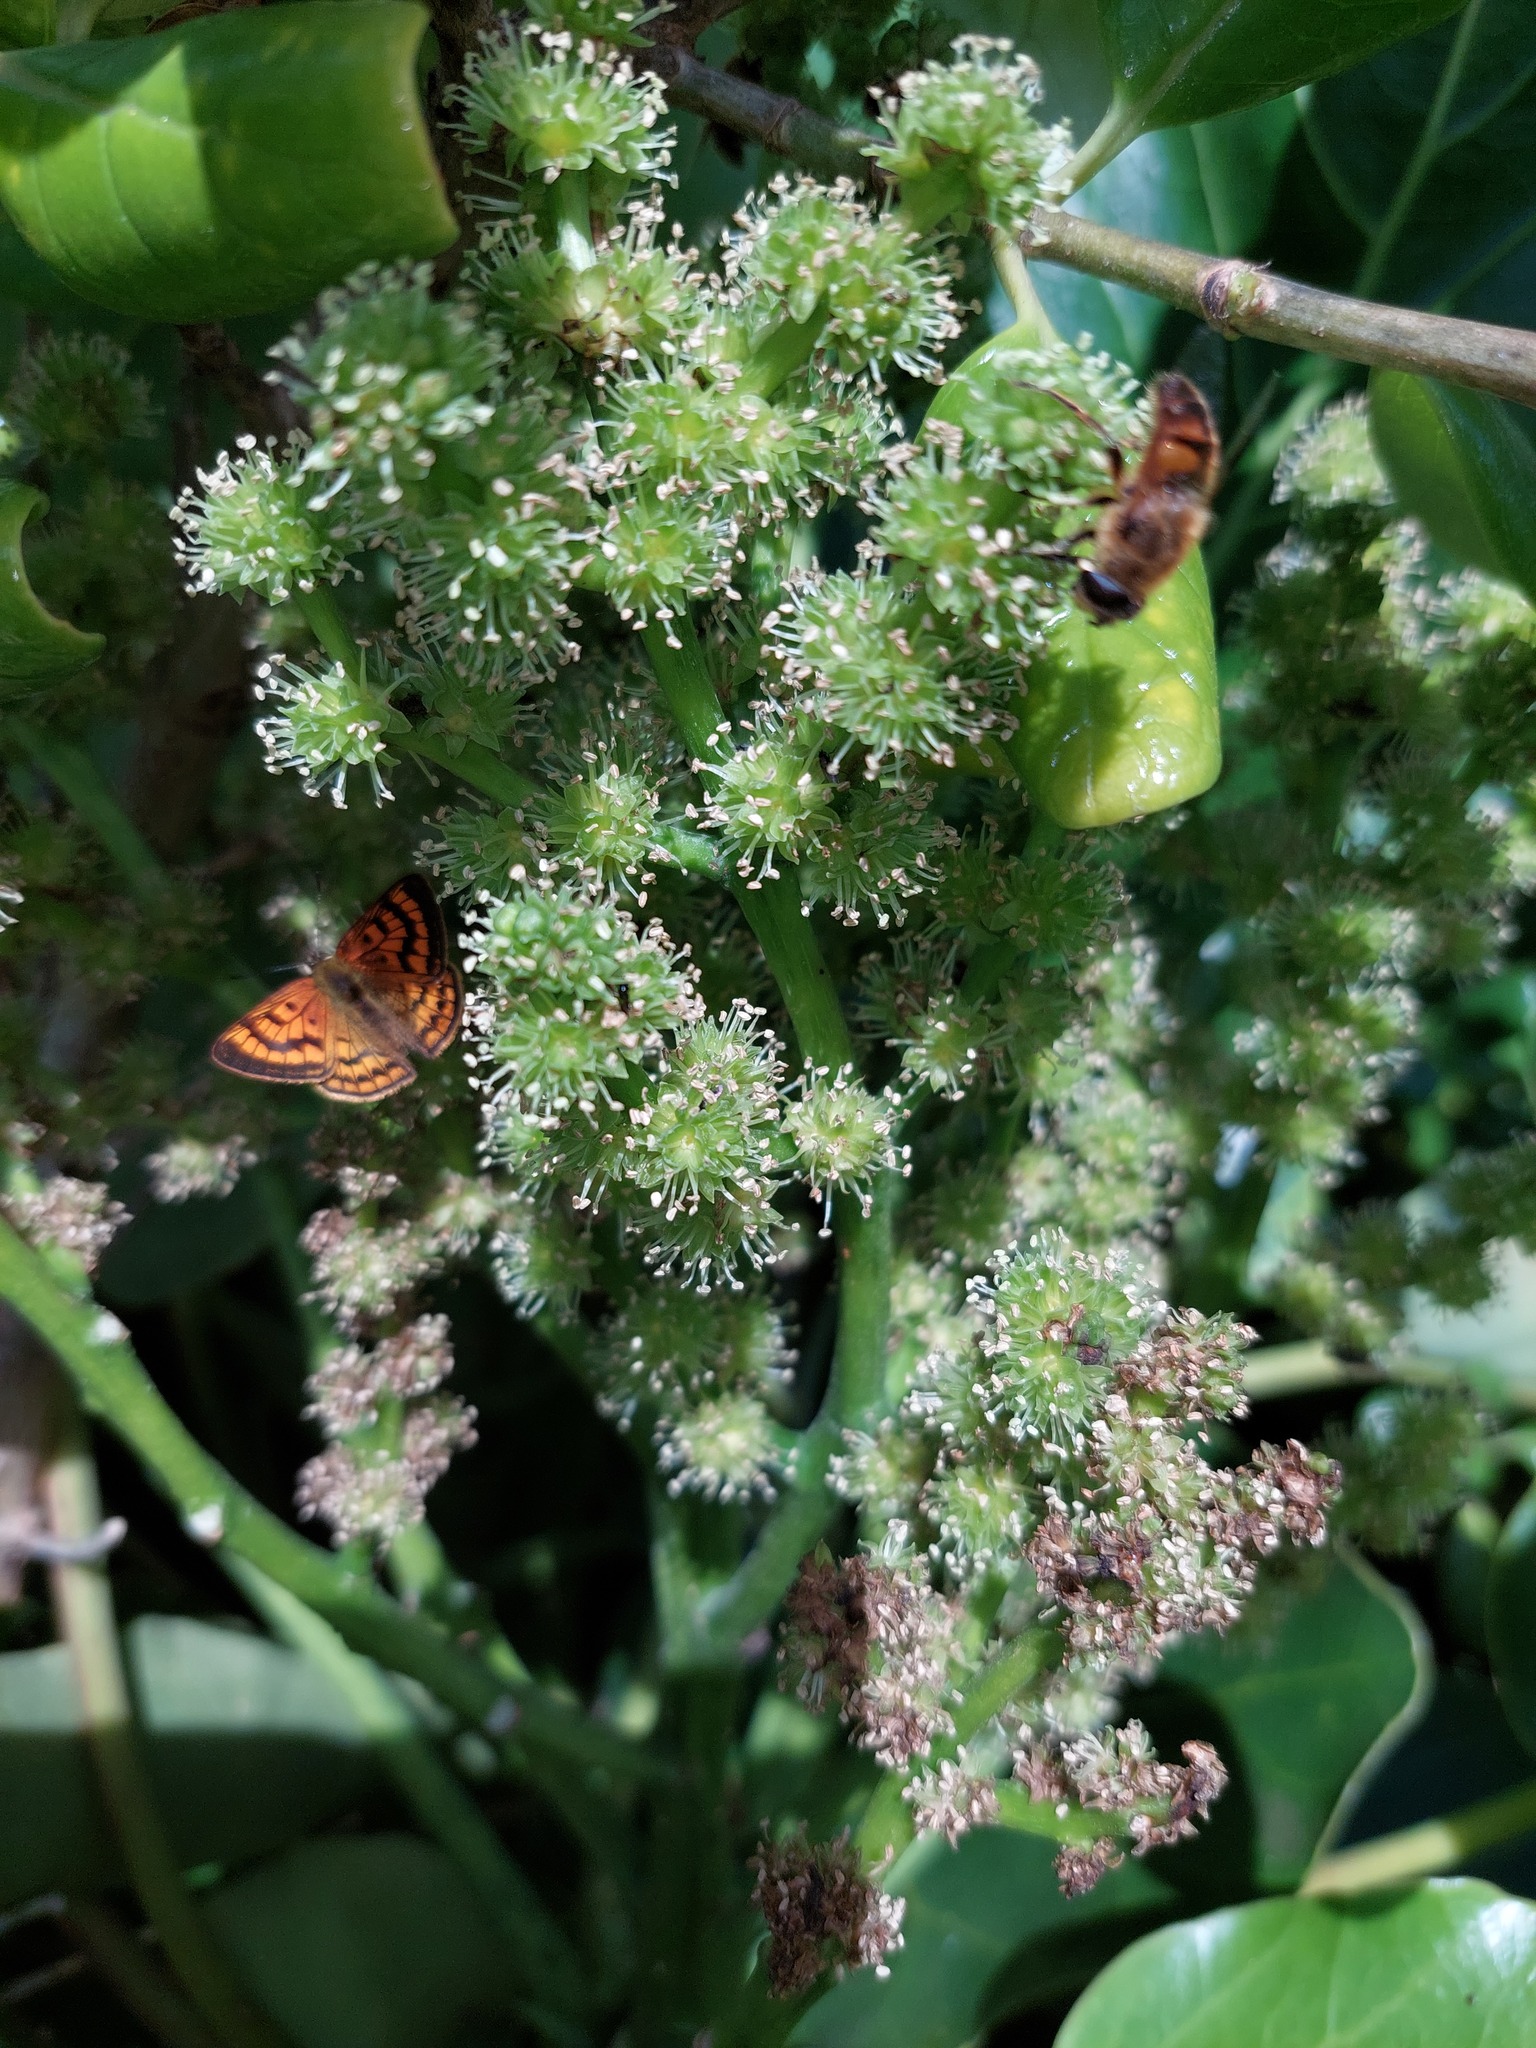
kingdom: Plantae
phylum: Tracheophyta
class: Magnoliopsida
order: Apiales
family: Griseliniaceae
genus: Griselinia
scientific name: Griselinia lucida
